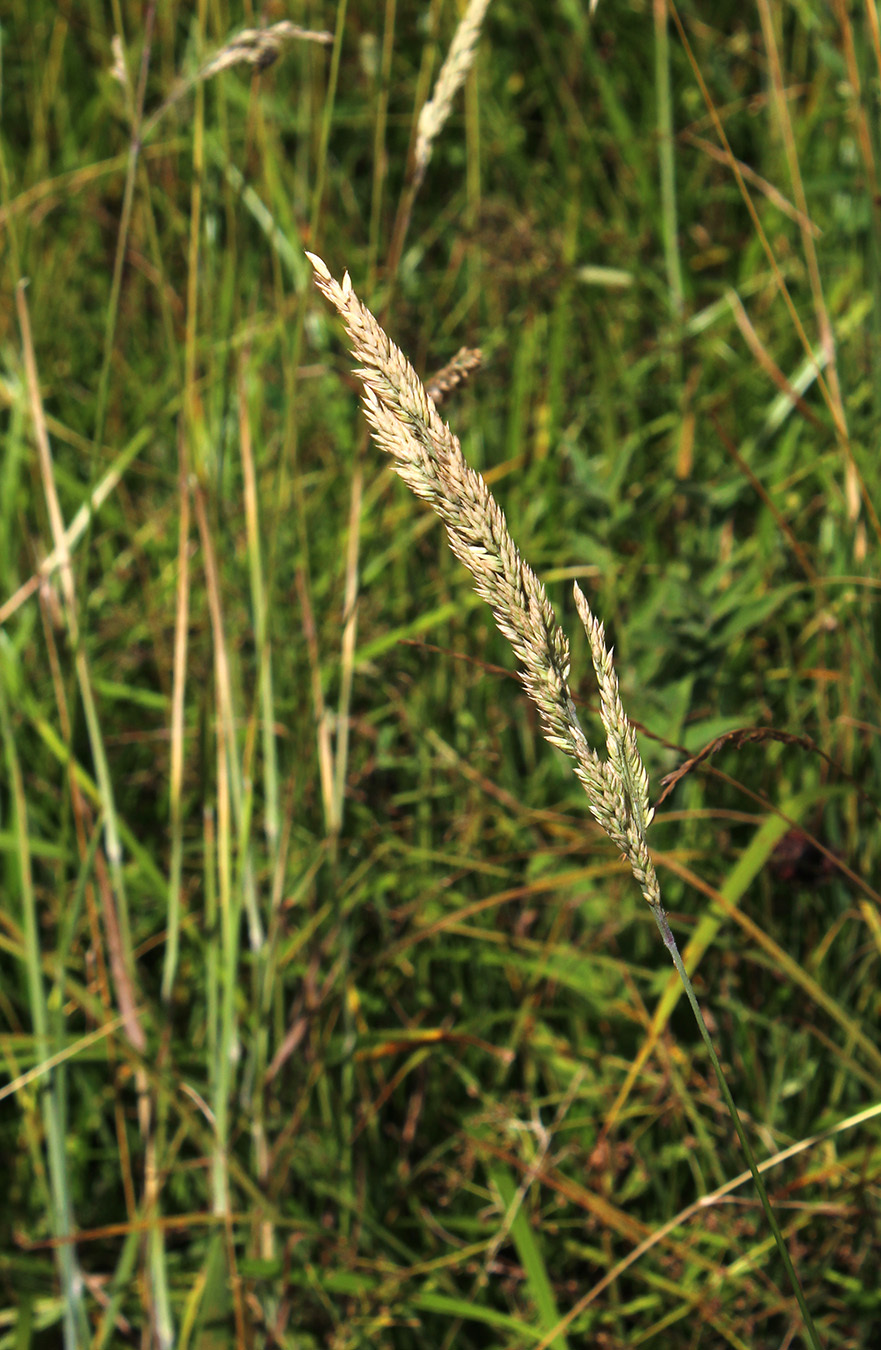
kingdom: Plantae
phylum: Tracheophyta
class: Liliopsida
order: Poales
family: Poaceae
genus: Holcus
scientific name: Holcus lanatus
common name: Yorkshire-fog
